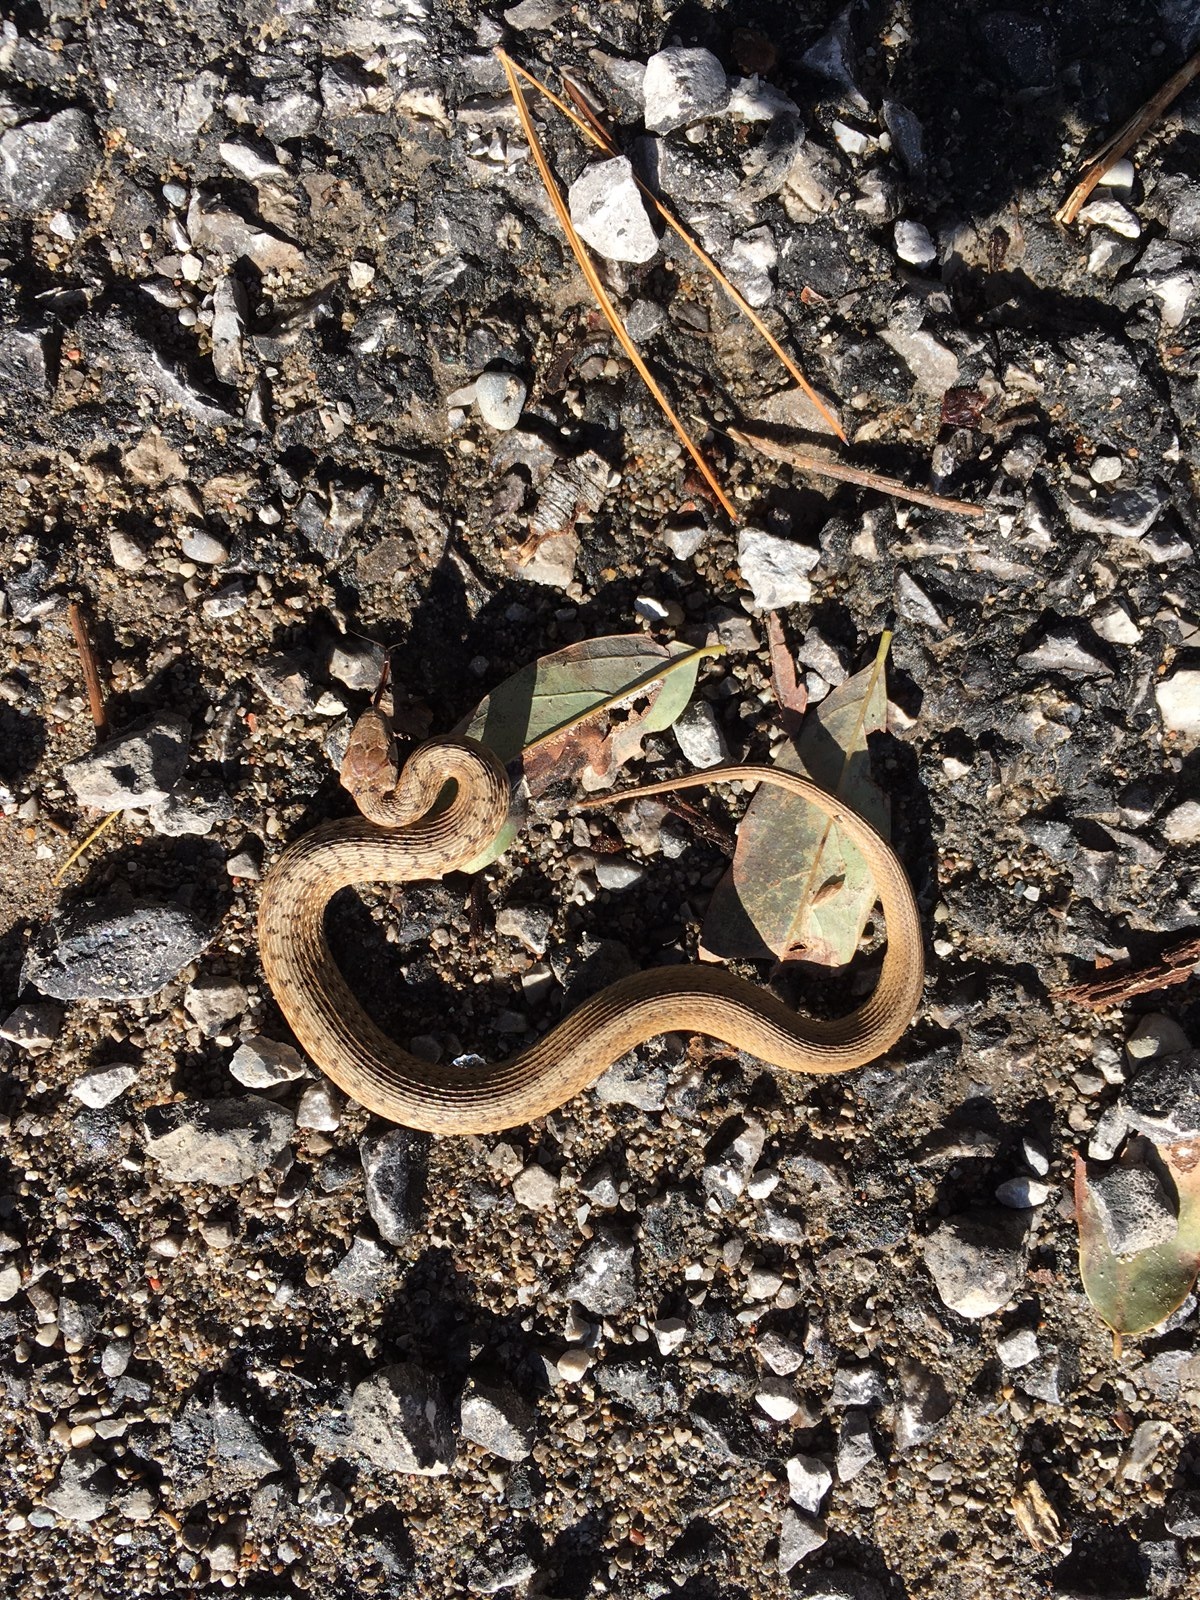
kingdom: Animalia
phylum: Chordata
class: Squamata
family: Colubridae
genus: Storeria
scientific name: Storeria dekayi
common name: (dekay’s) brown snake
